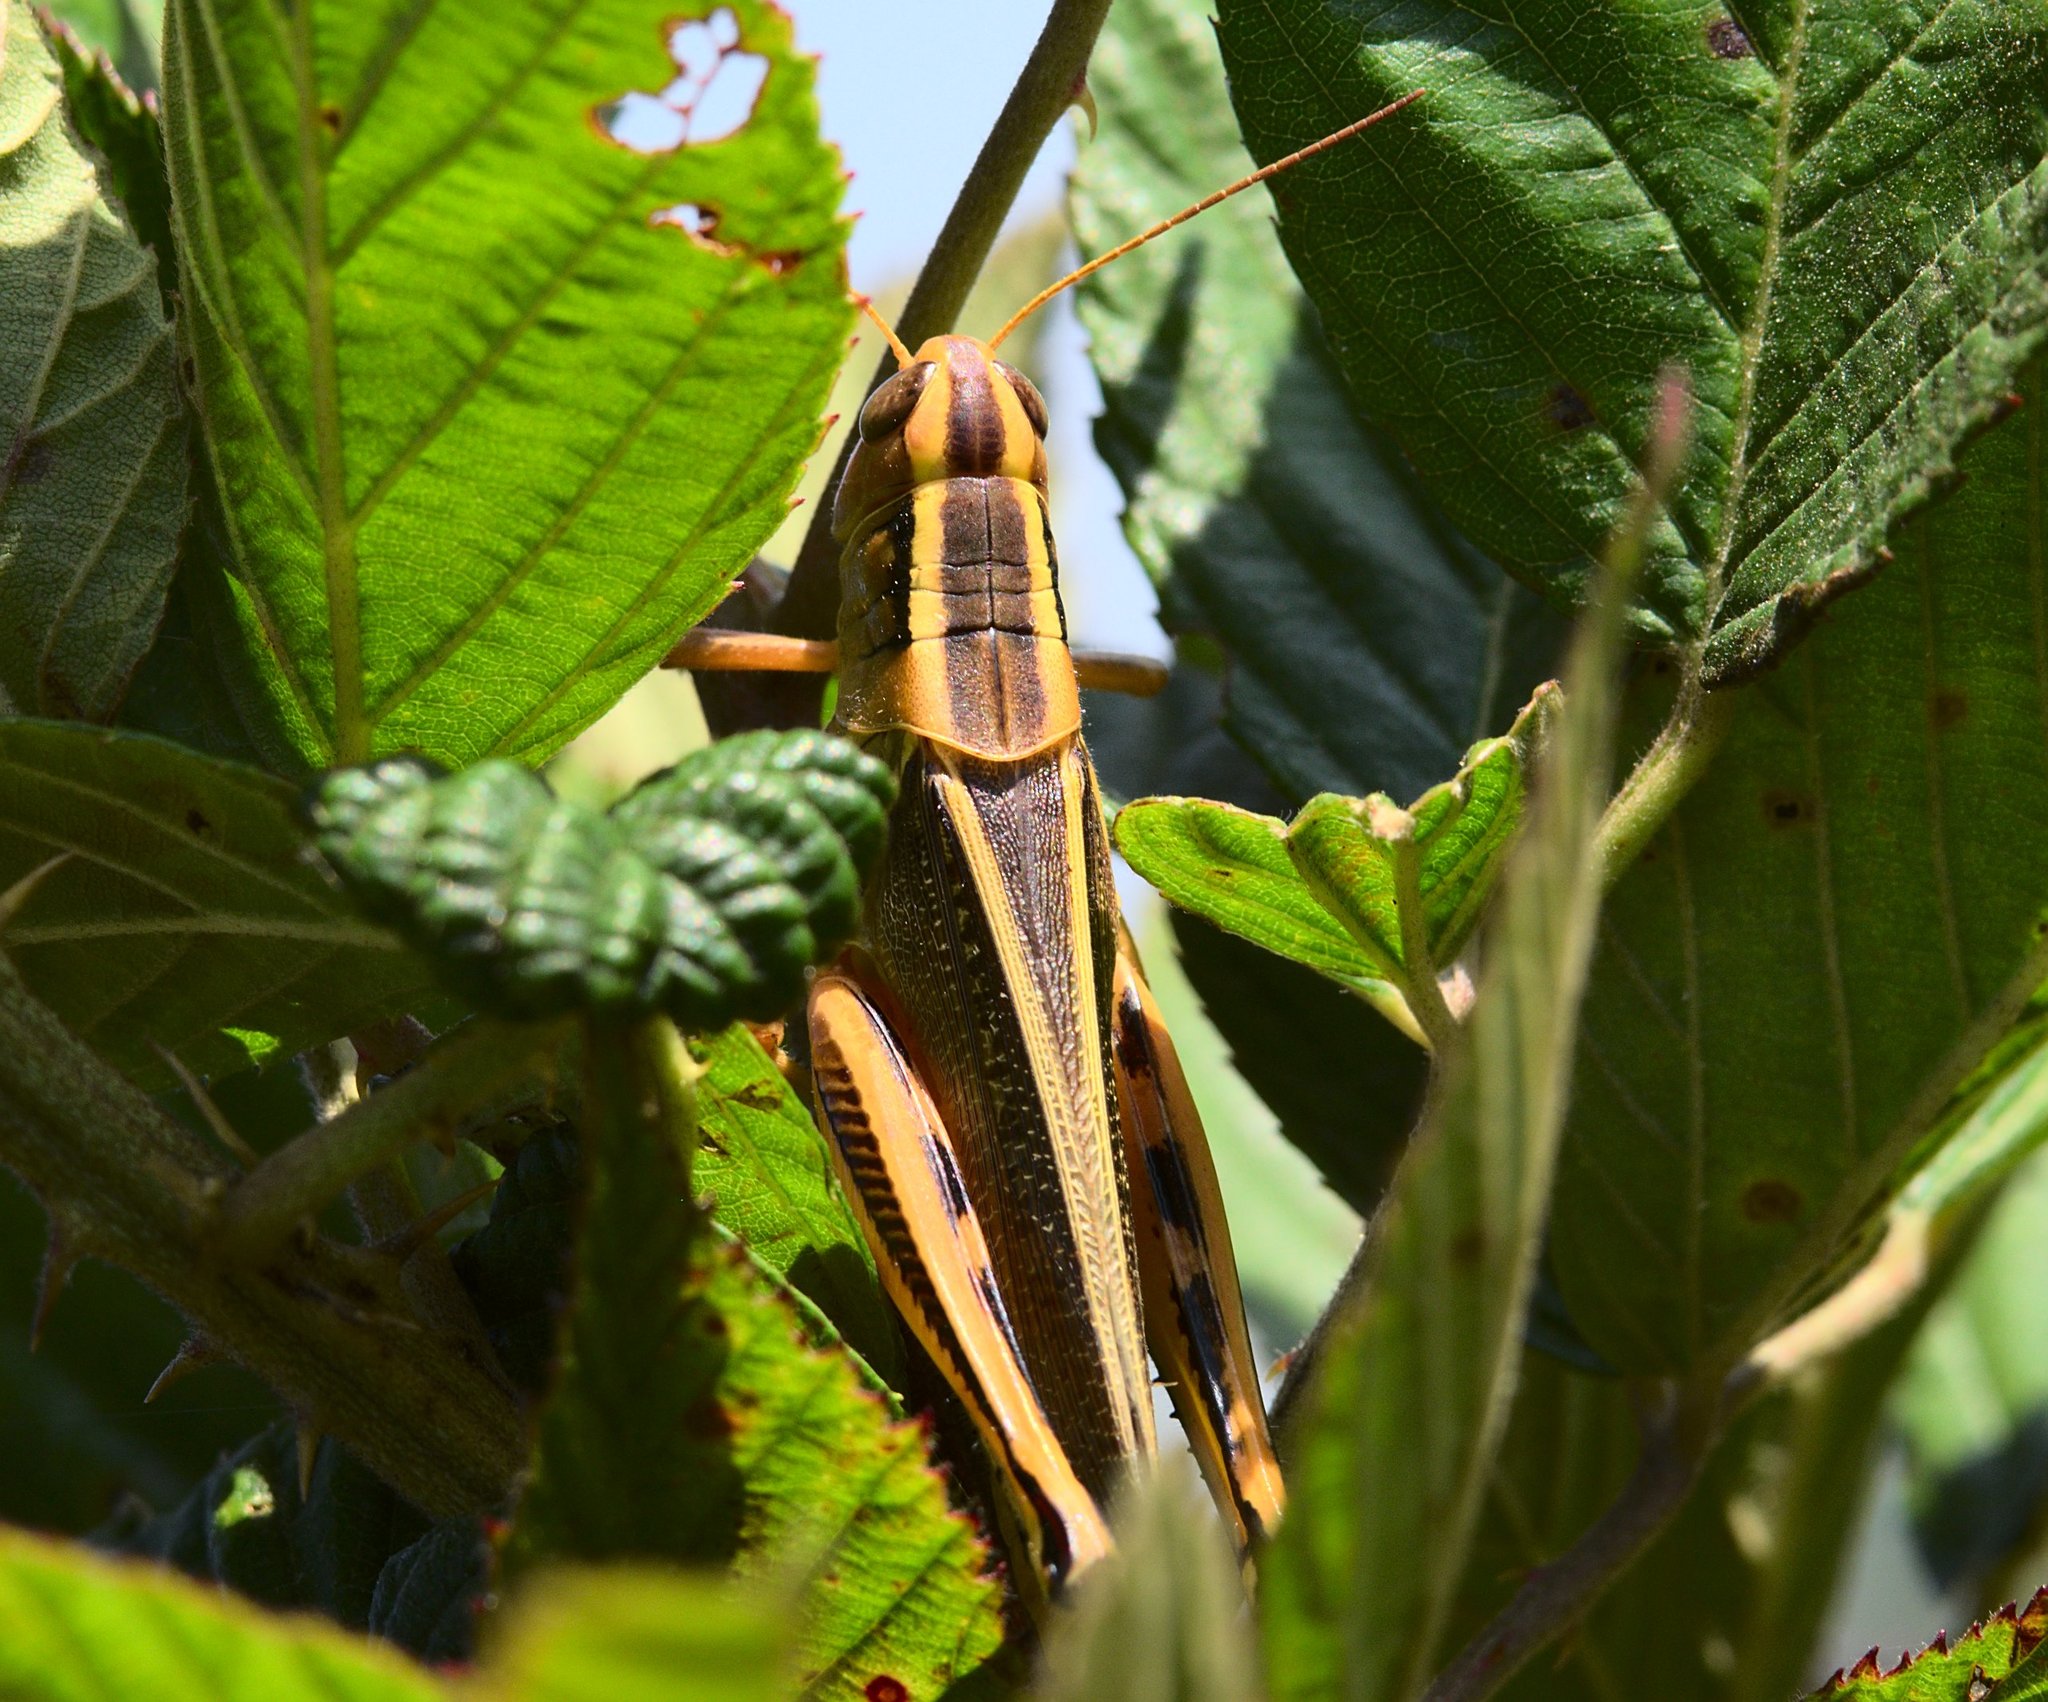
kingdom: Animalia
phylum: Arthropoda
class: Insecta
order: Orthoptera
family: Acrididae
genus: Melanoplus
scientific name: Melanoplus bivittatus
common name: Two-striped grasshopper
